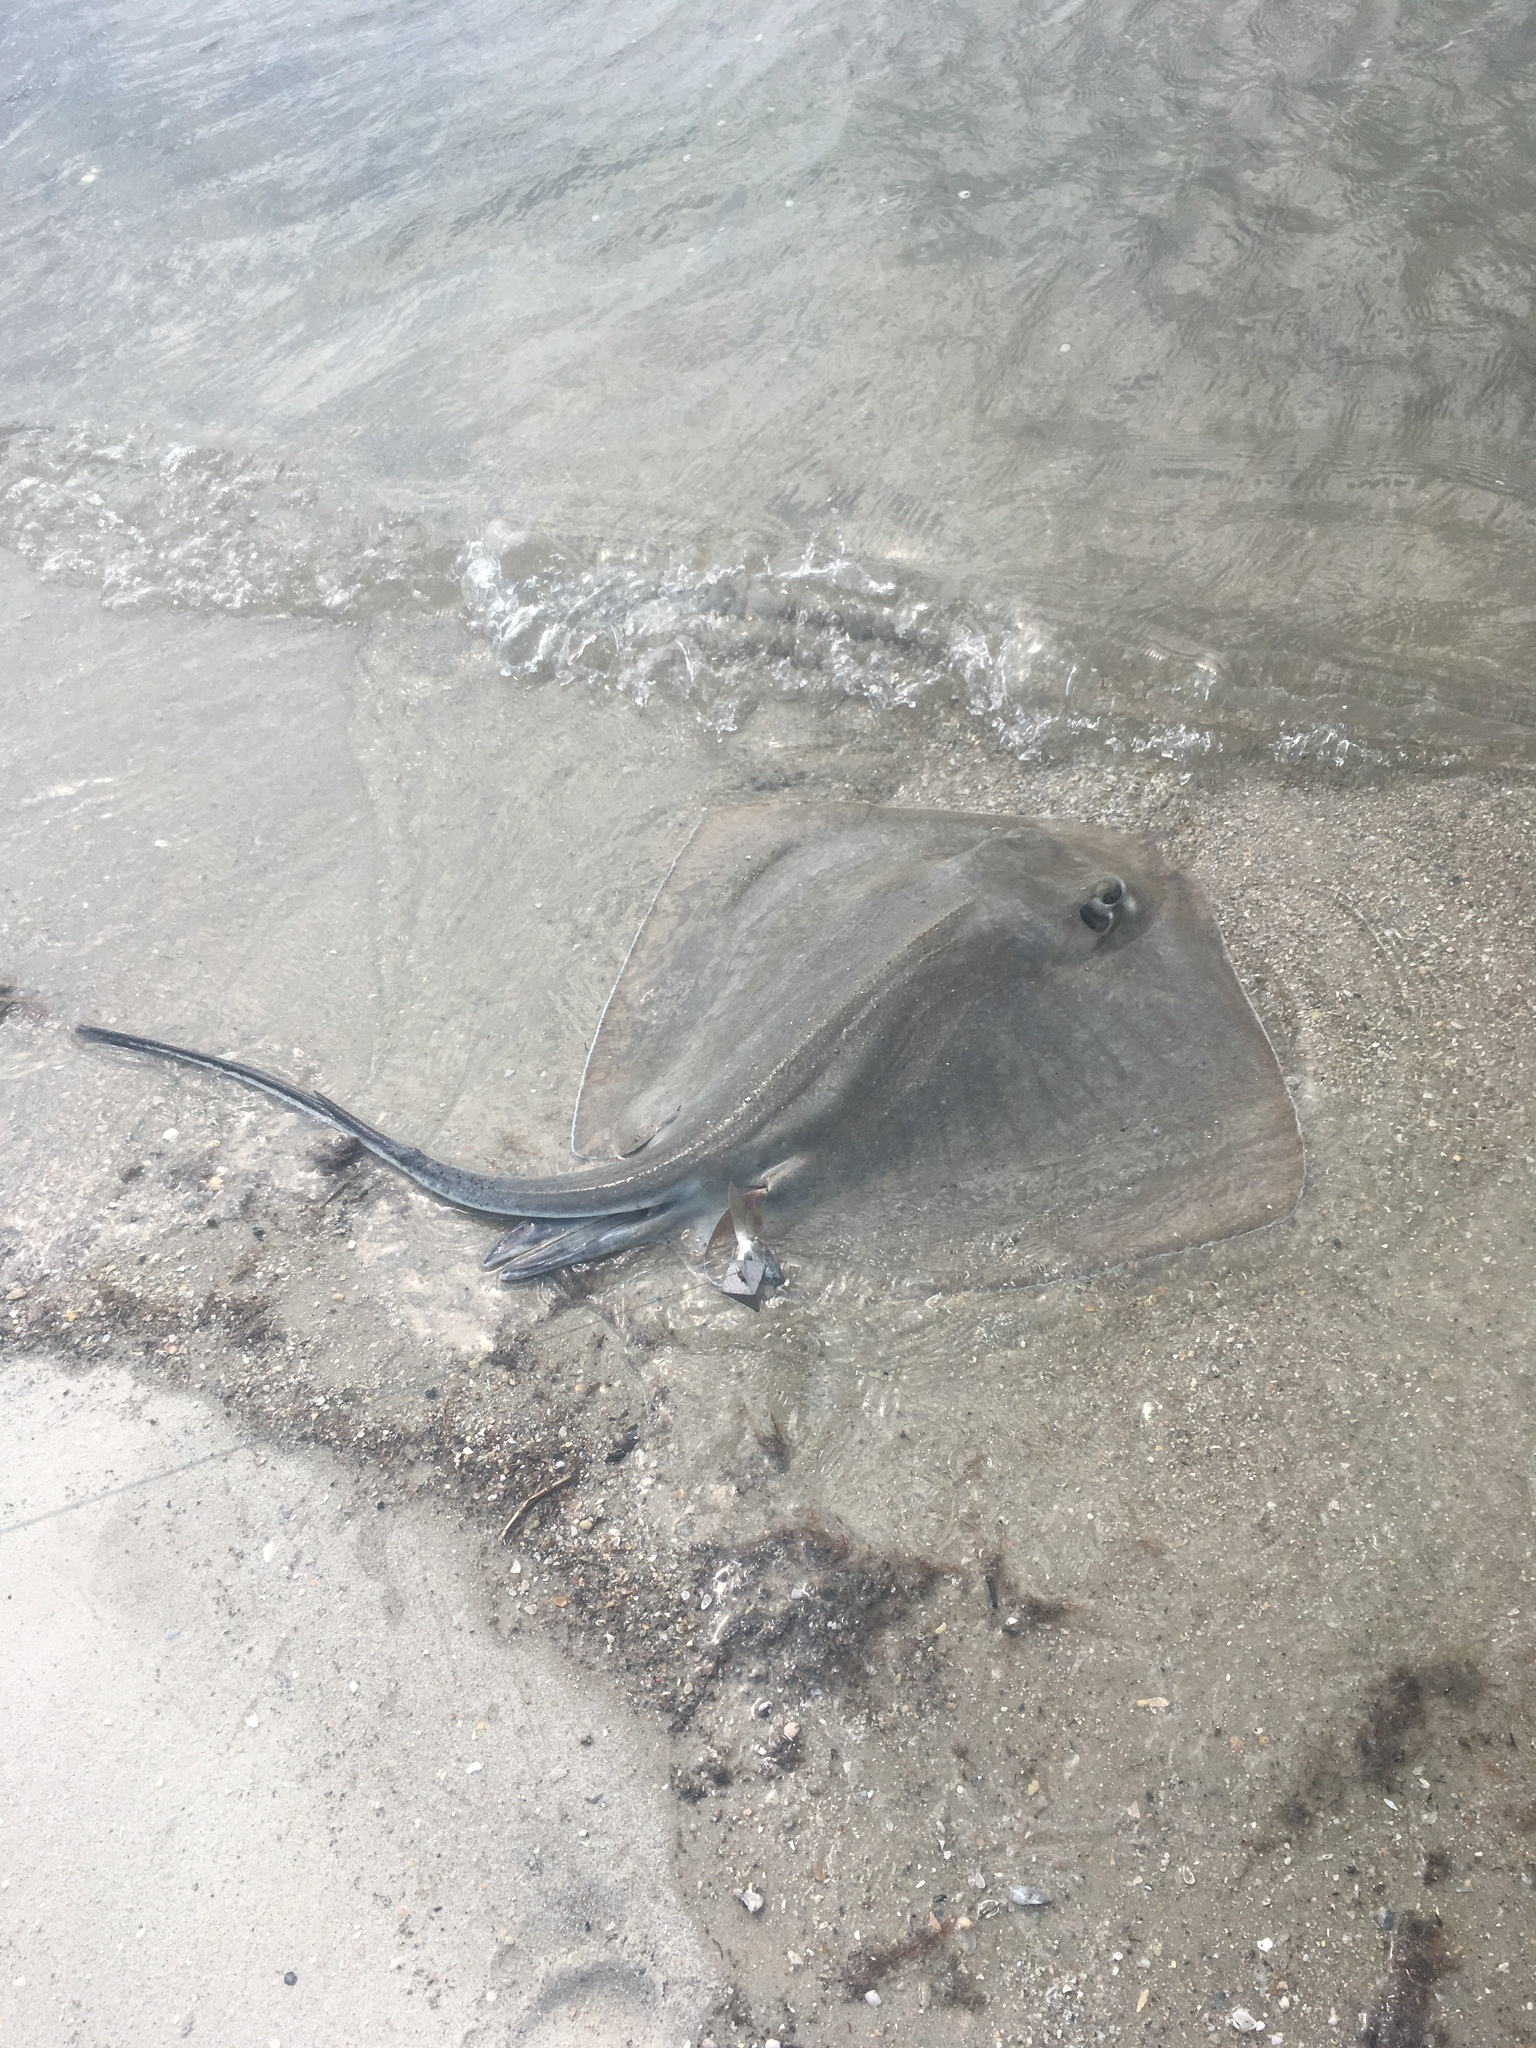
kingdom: Animalia
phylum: Chordata
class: Elasmobranchii
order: Myliobatiformes
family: Dasyatidae
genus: Hypanus
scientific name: Hypanus americanus
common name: Southern stingray
